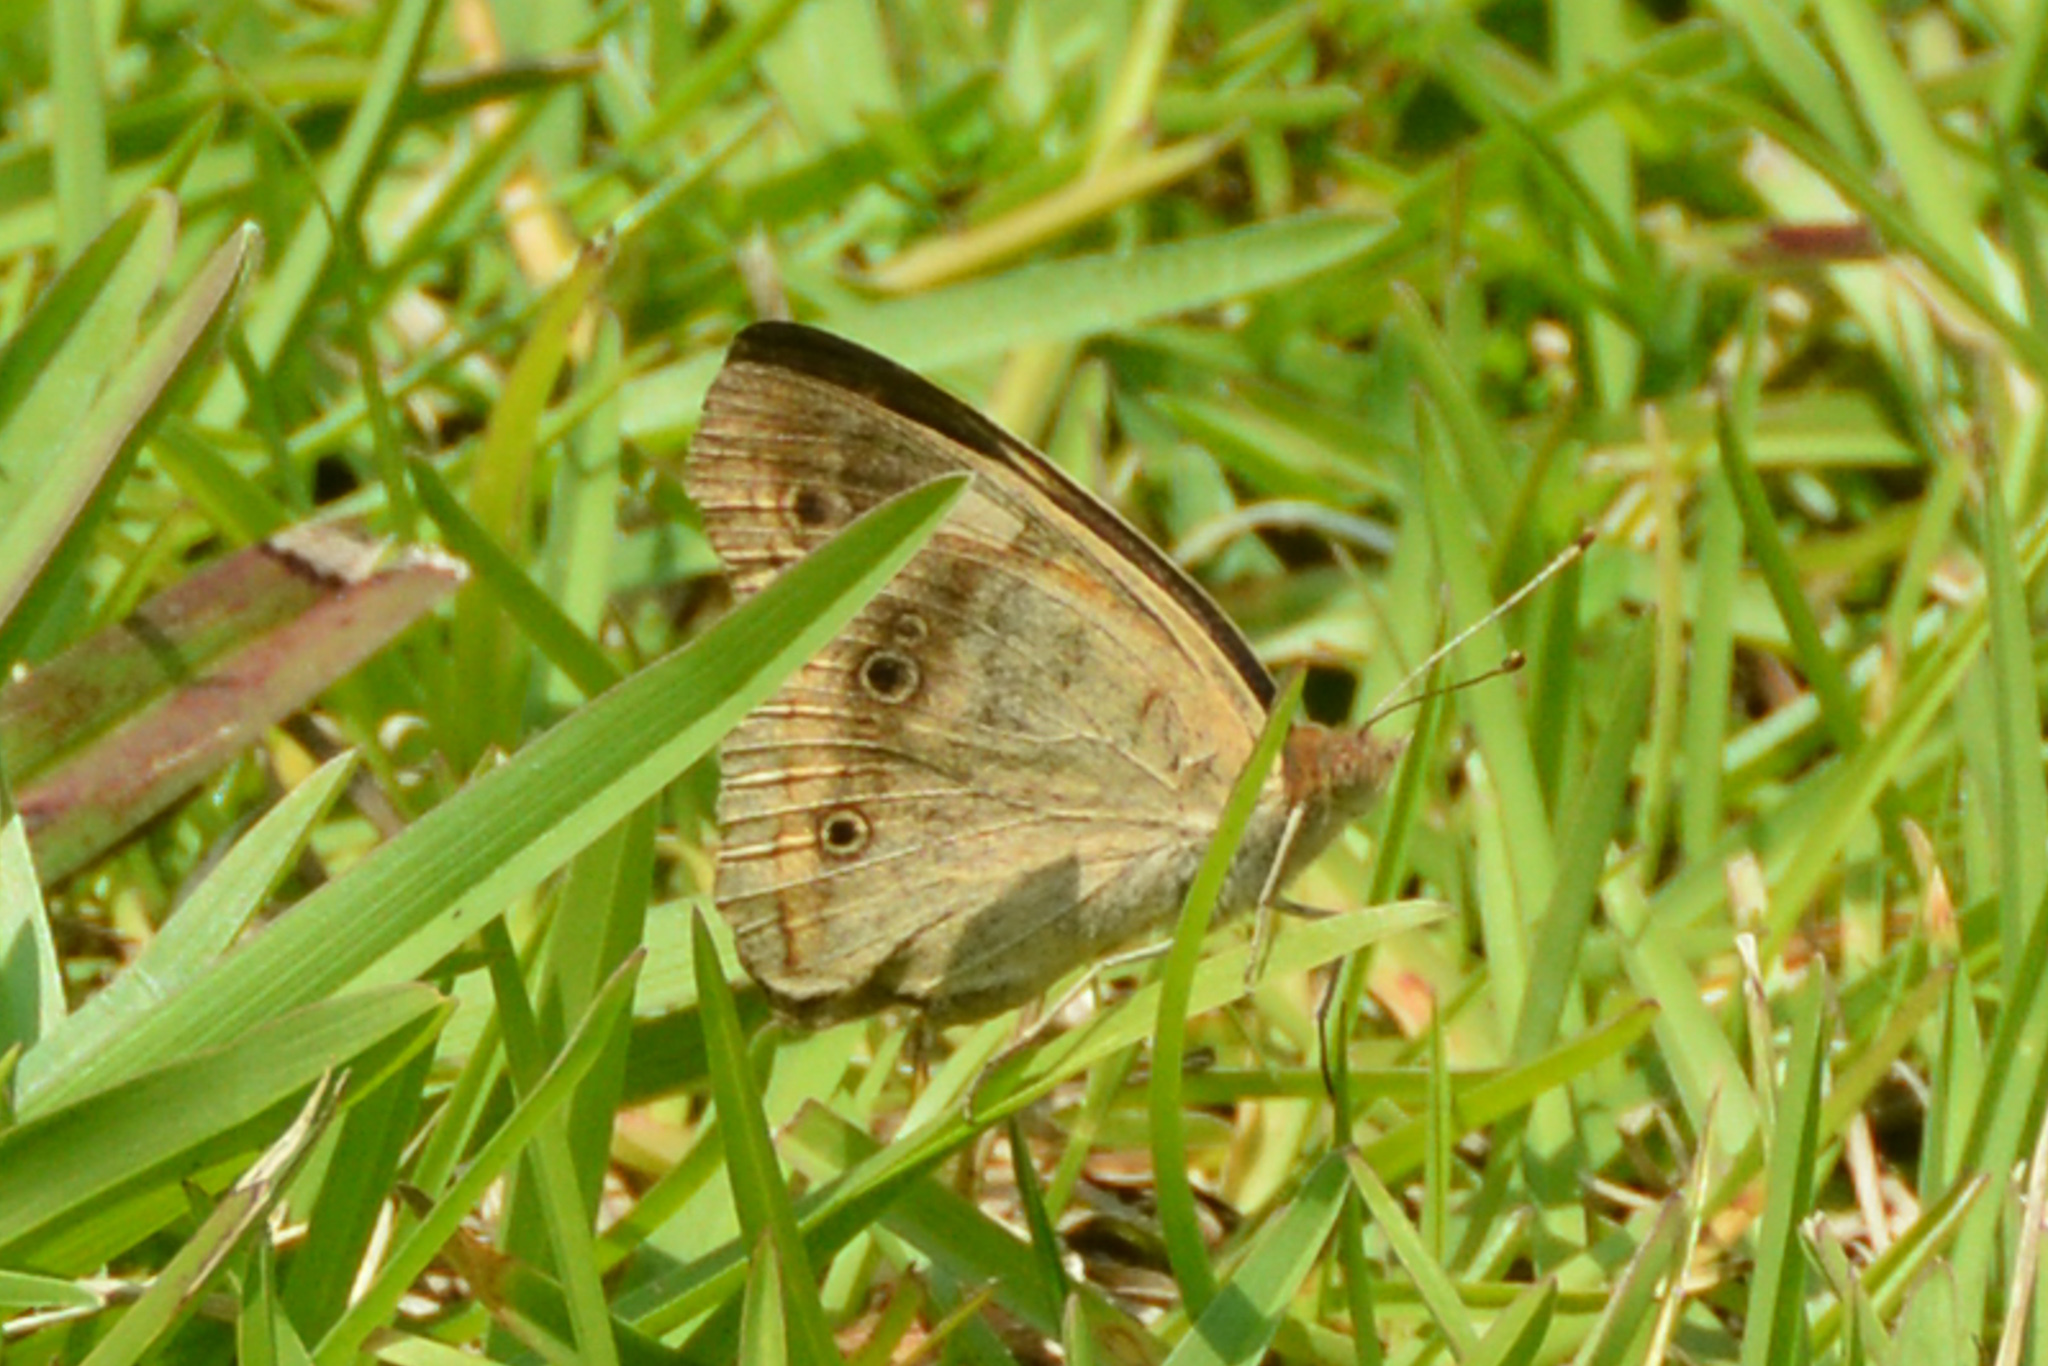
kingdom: Animalia
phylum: Arthropoda
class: Insecta
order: Lepidoptera
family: Nymphalidae
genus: Junonia
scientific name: Junonia coenia
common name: Common buckeye
